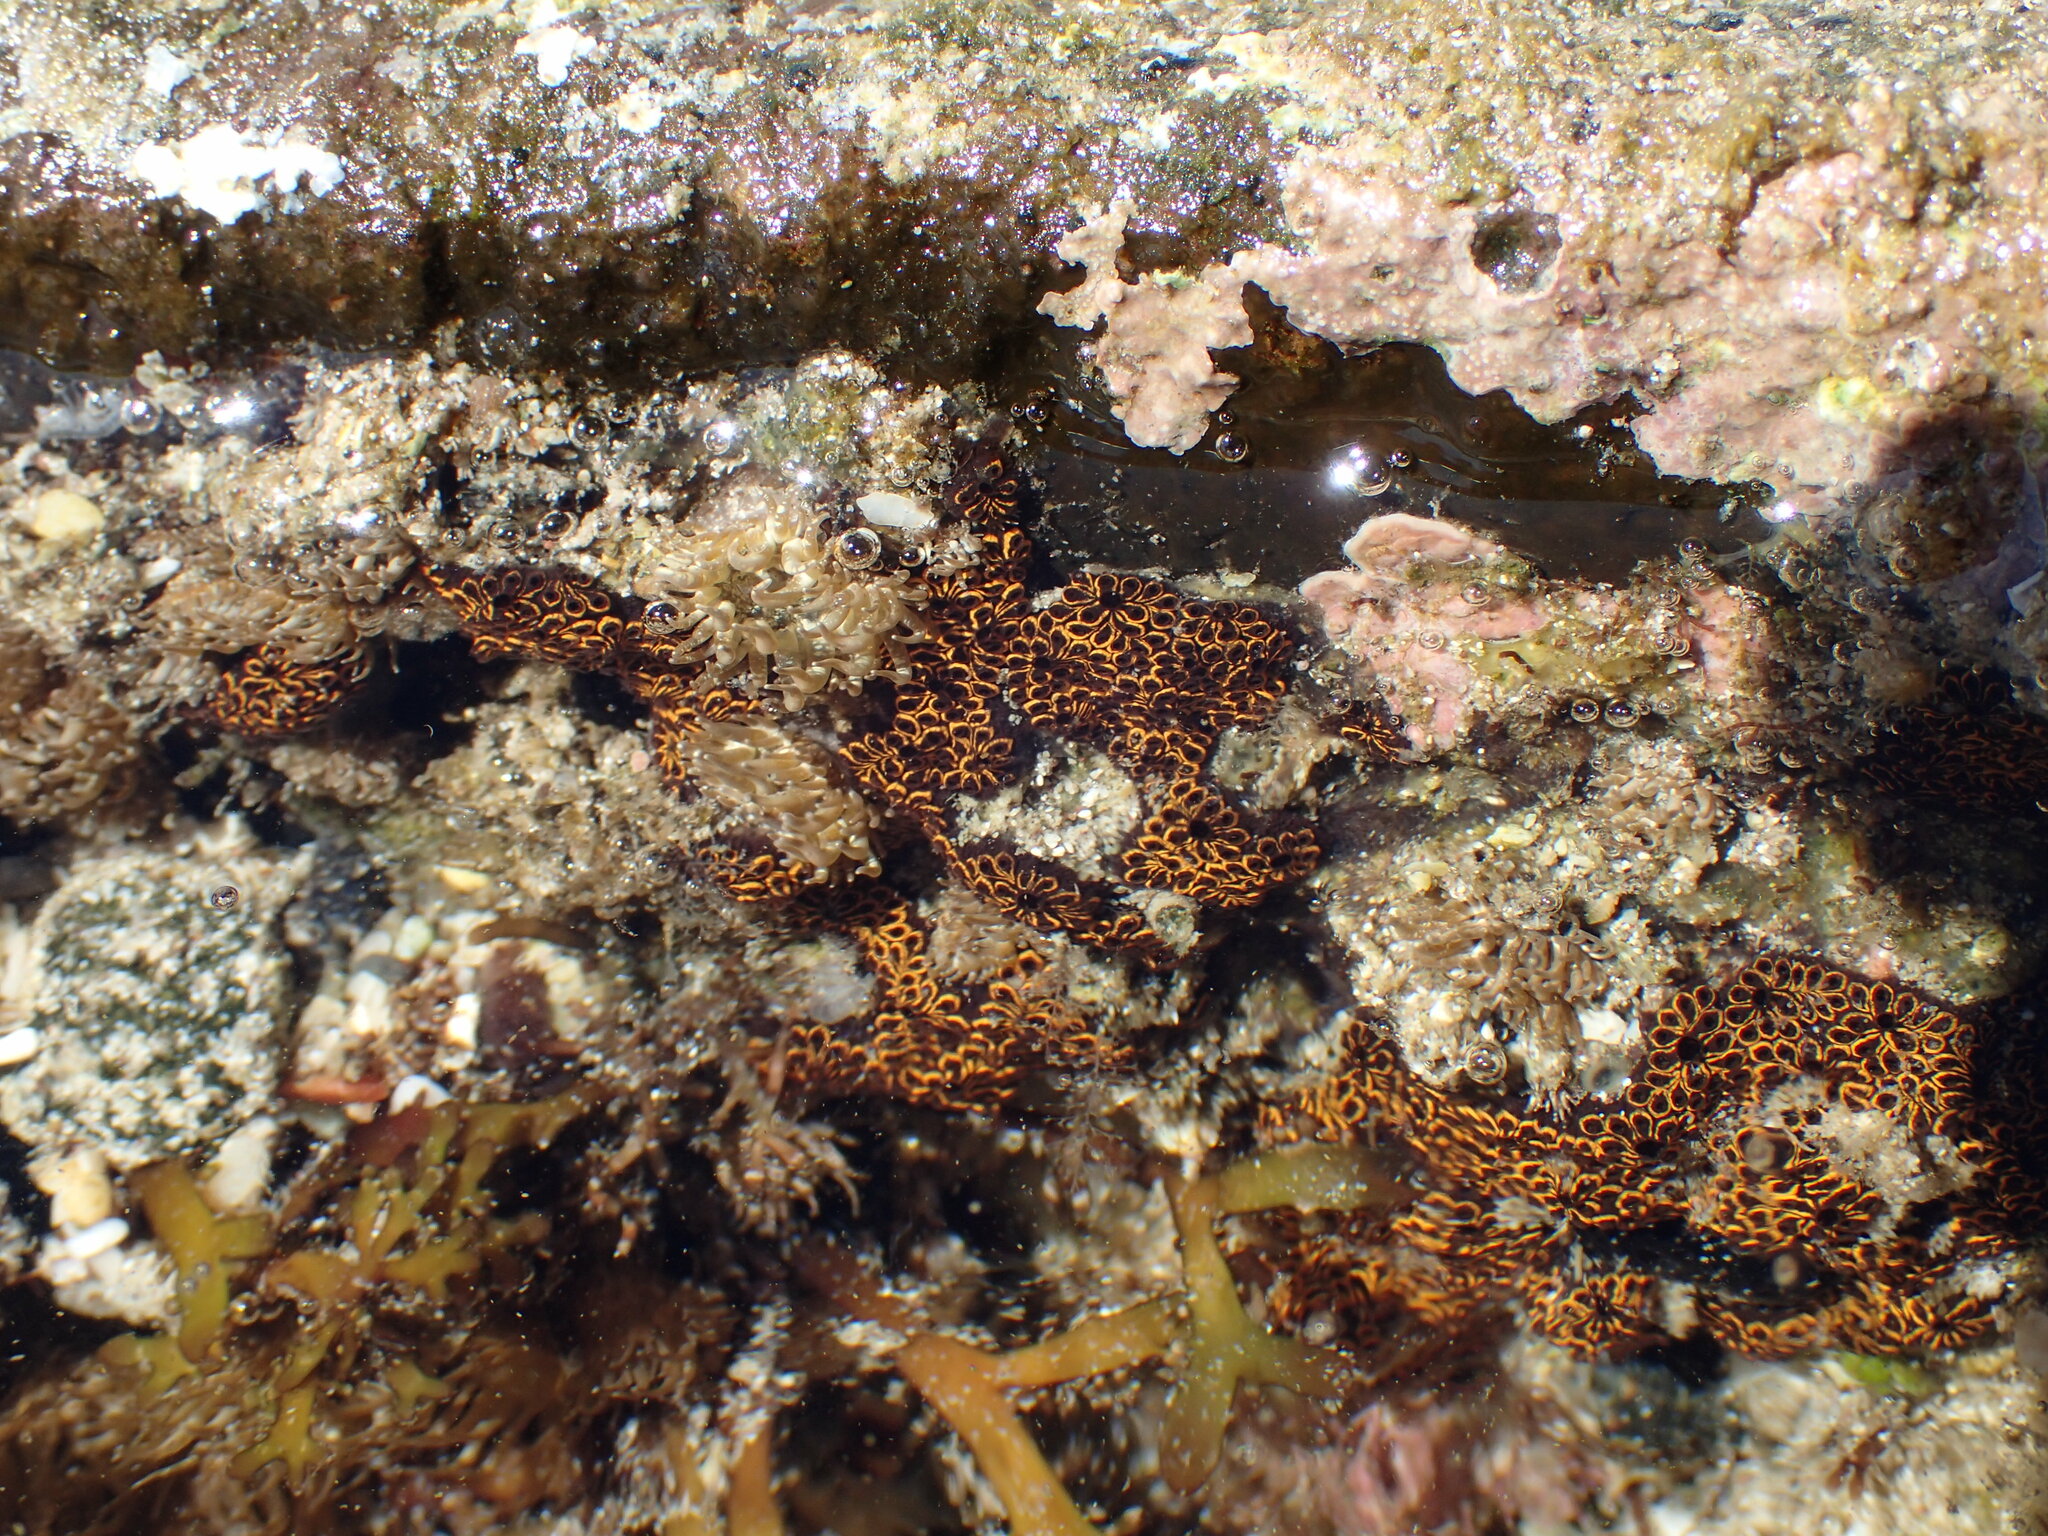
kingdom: Animalia
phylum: Chordata
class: Ascidiacea
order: Stolidobranchia
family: Styelidae
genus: Botrylloides
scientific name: Botrylloides niger
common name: Black synascidia
